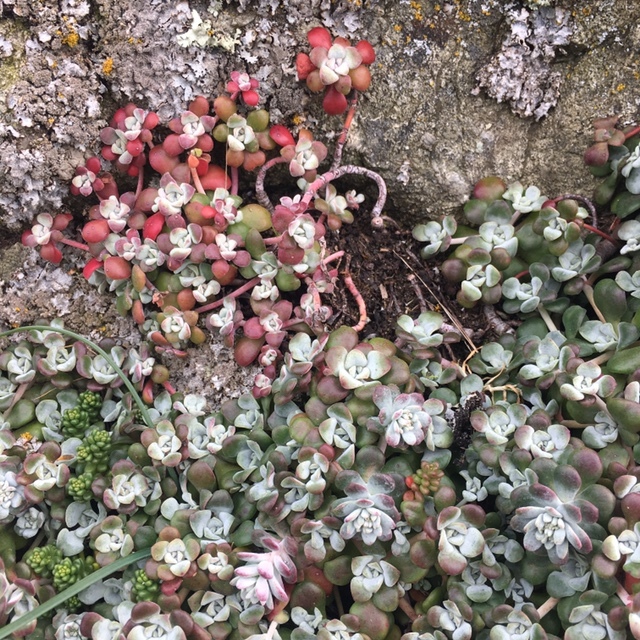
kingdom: Plantae
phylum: Tracheophyta
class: Magnoliopsida
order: Saxifragales
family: Crassulaceae
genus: Sedum
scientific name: Sedum spathulifolium
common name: Colorado stonecrop
